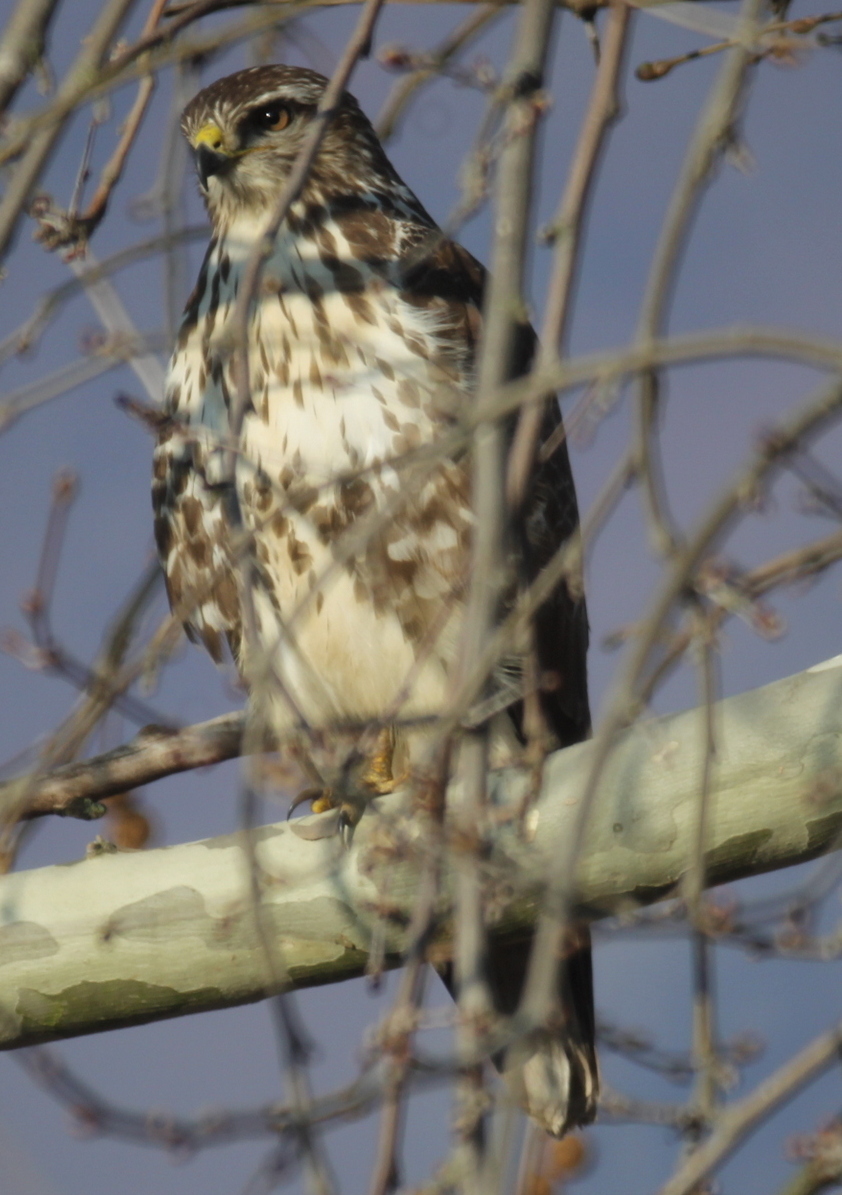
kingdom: Animalia
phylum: Chordata
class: Aves
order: Accipitriformes
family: Accipitridae
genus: Buteo
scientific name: Buteo buteo
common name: Common buzzard
